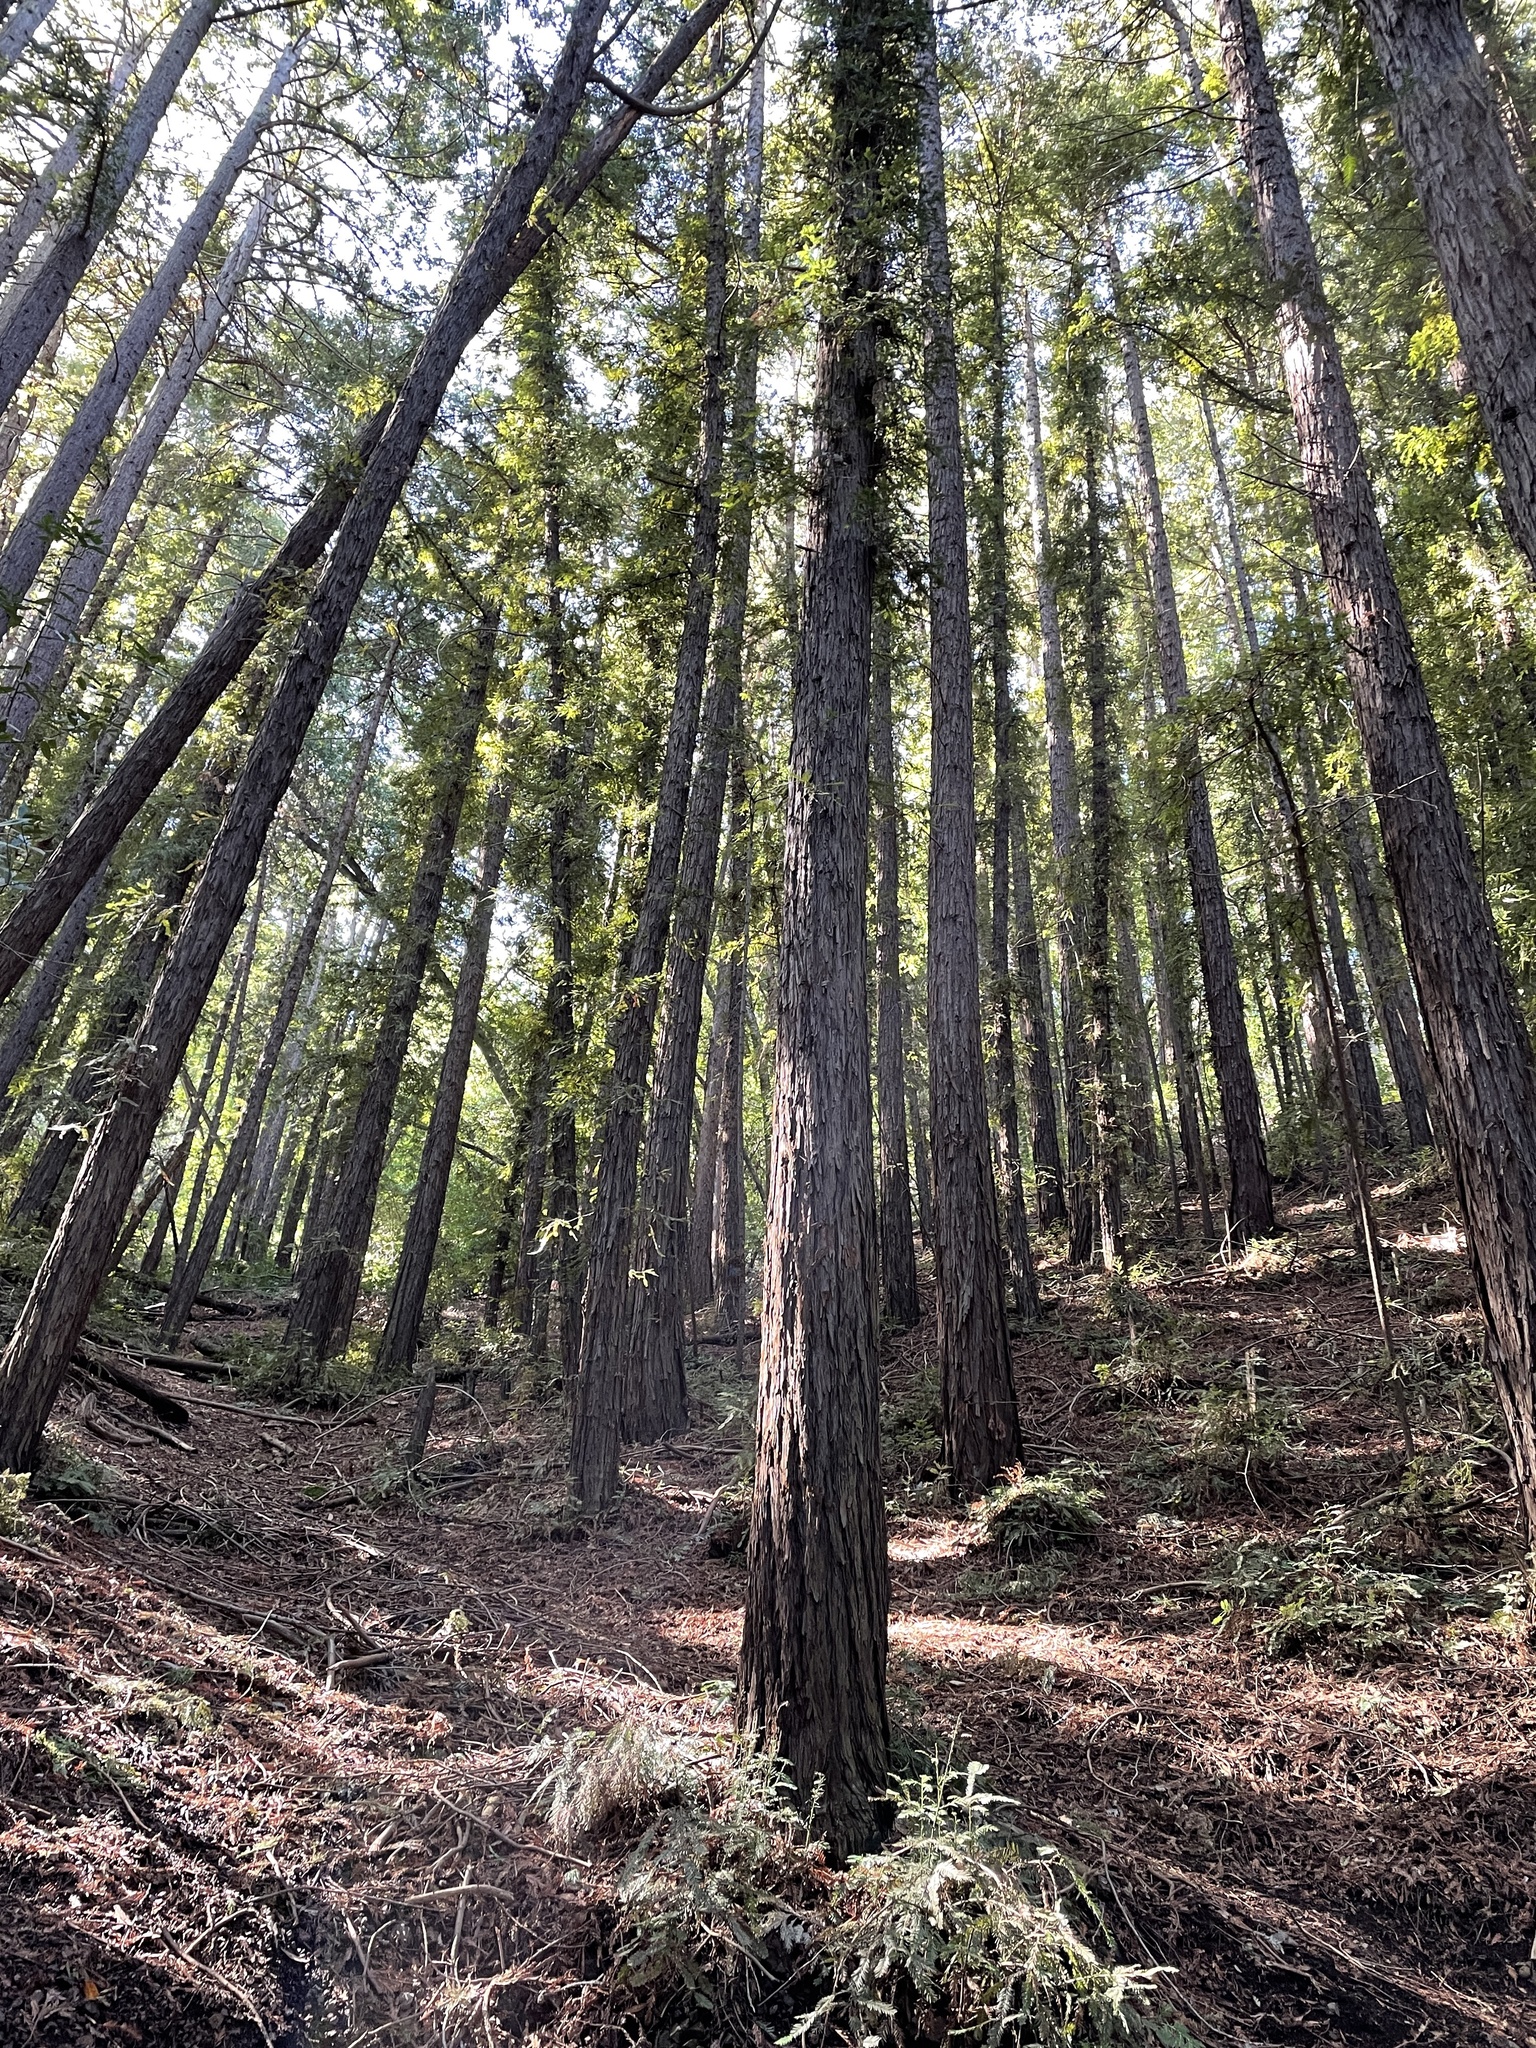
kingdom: Plantae
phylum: Tracheophyta
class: Pinopsida
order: Pinales
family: Cupressaceae
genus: Sequoia
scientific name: Sequoia sempervirens
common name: Coast redwood
